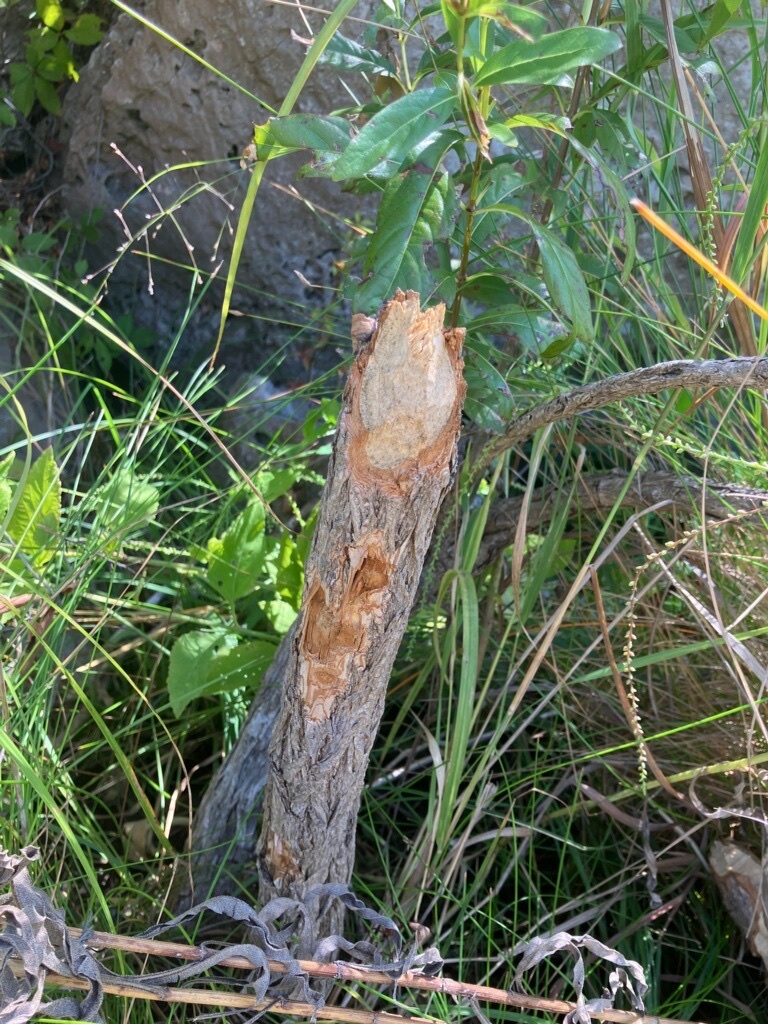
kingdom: Animalia
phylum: Chordata
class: Mammalia
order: Rodentia
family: Castoridae
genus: Castor
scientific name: Castor canadensis
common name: American beaver
